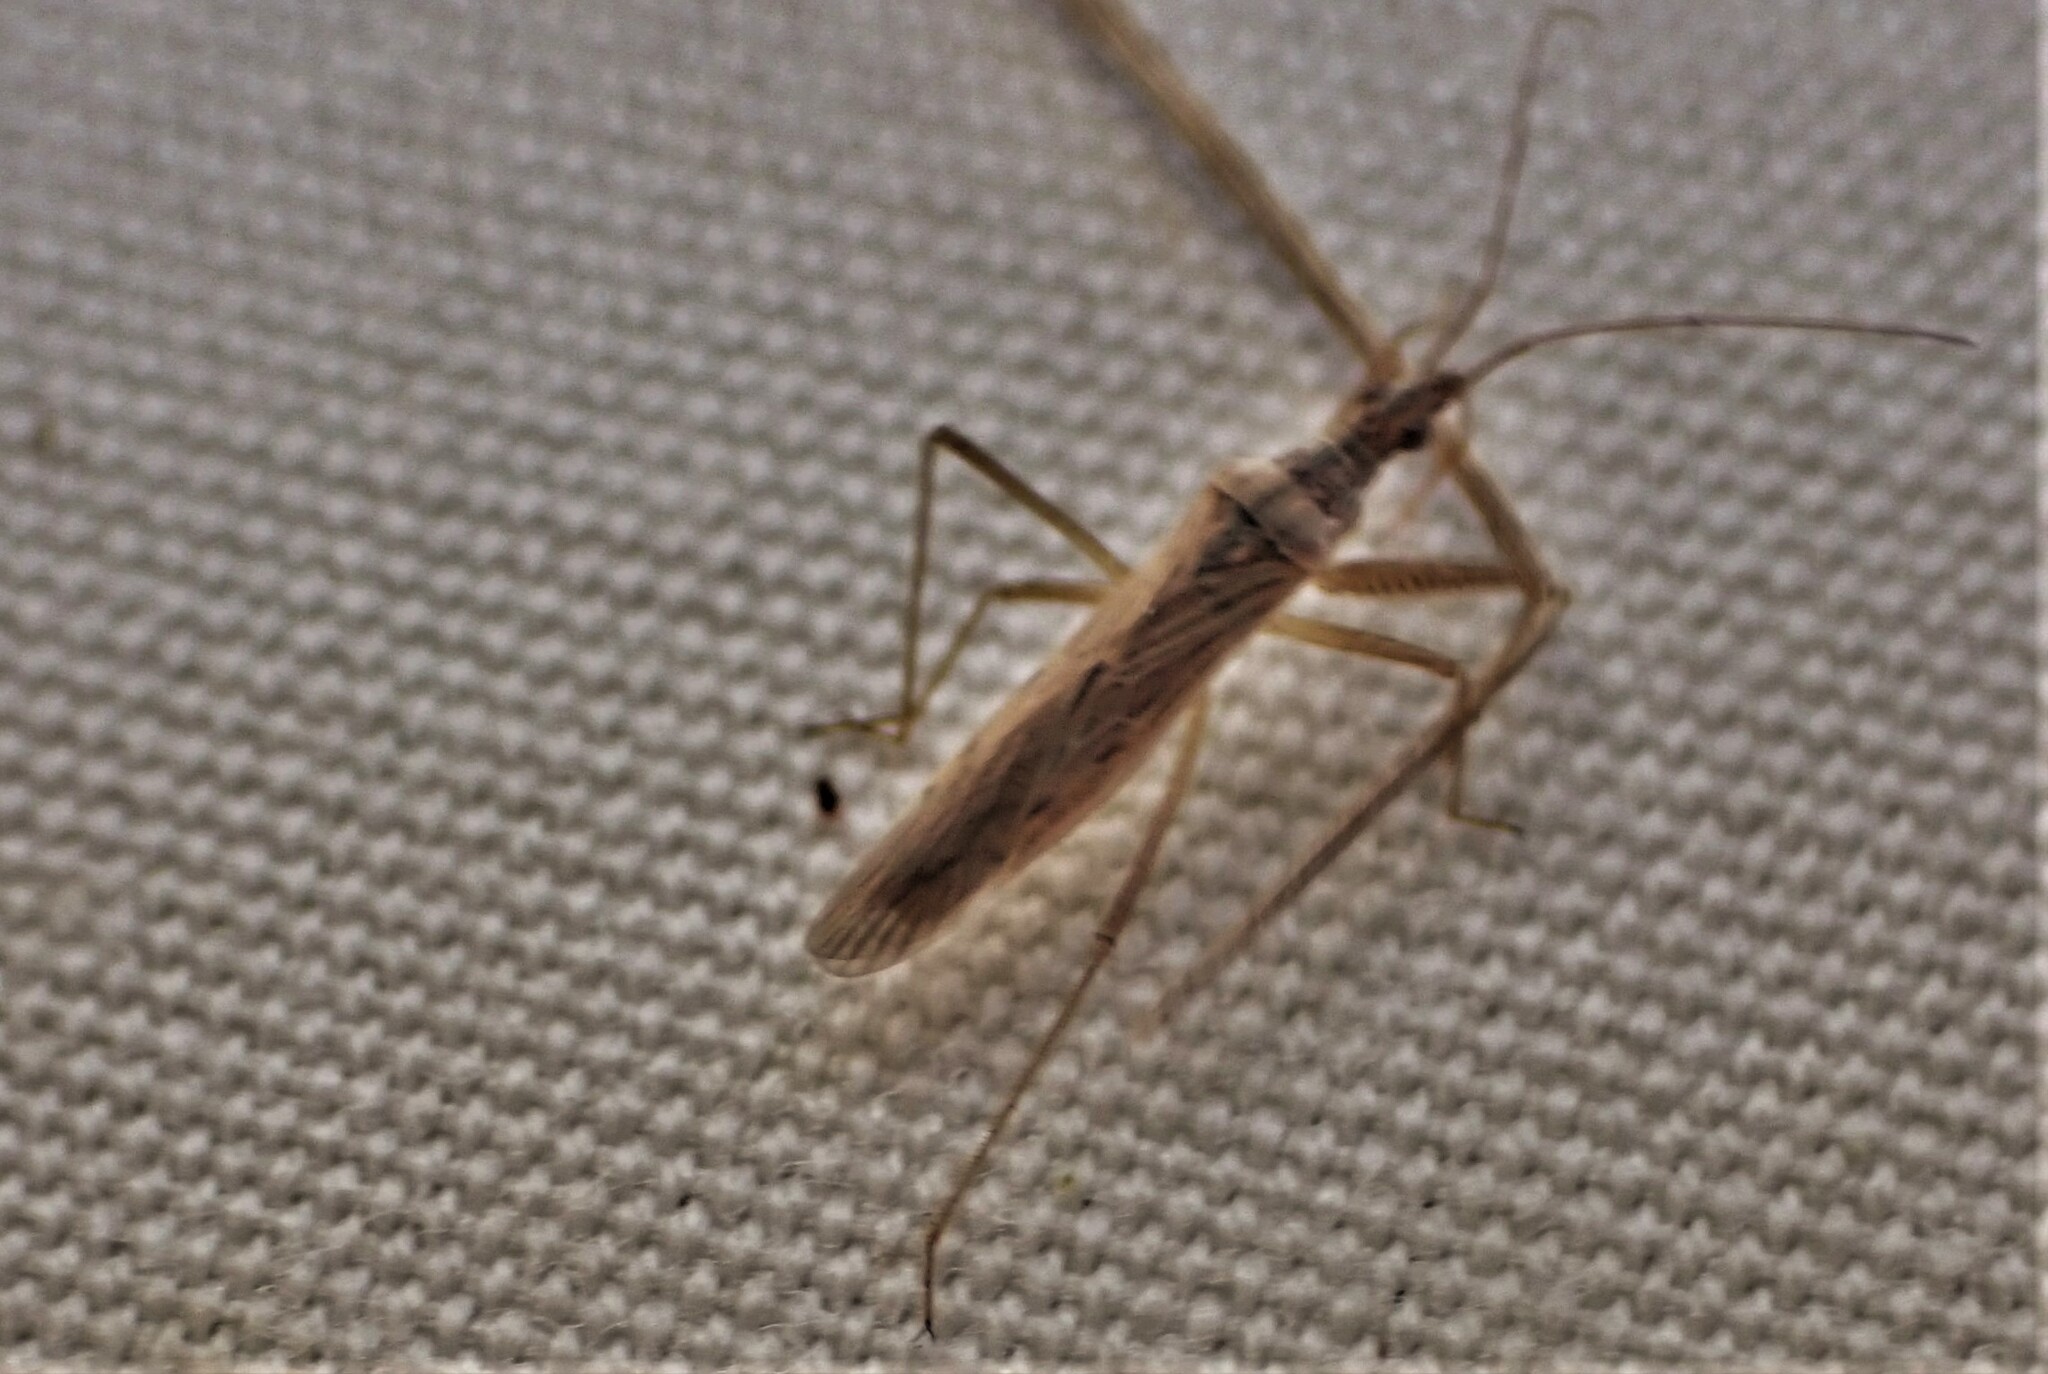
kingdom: Animalia
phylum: Arthropoda
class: Insecta
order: Hemiptera
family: Nabidae
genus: Nabis
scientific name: Nabis kinbergii
